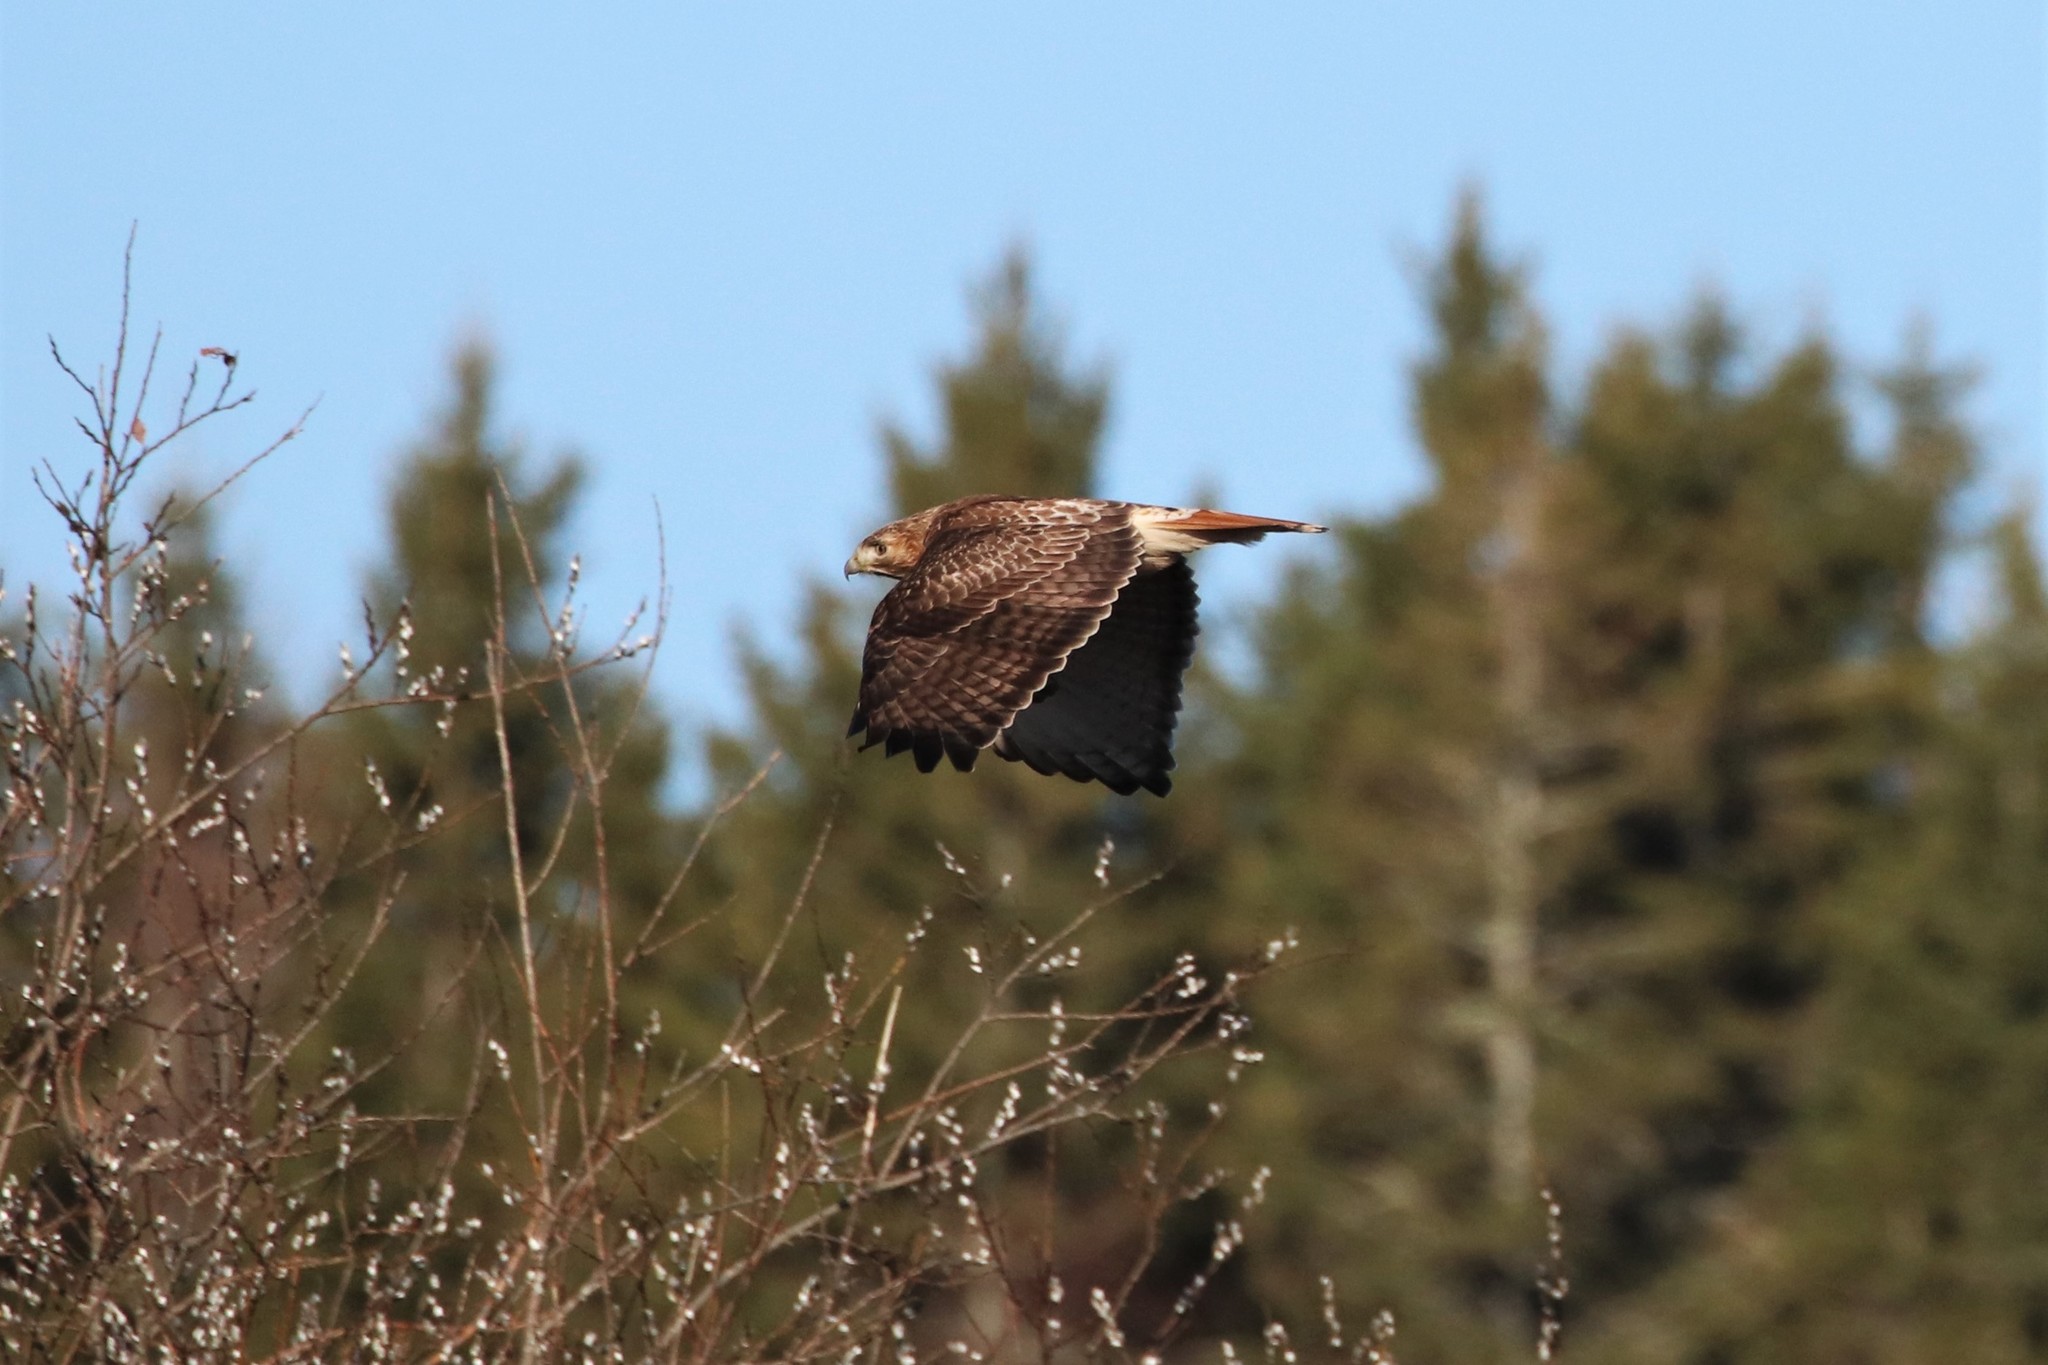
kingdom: Animalia
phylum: Chordata
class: Aves
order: Accipitriformes
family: Accipitridae
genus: Buteo
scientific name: Buteo jamaicensis
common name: Red-tailed hawk
